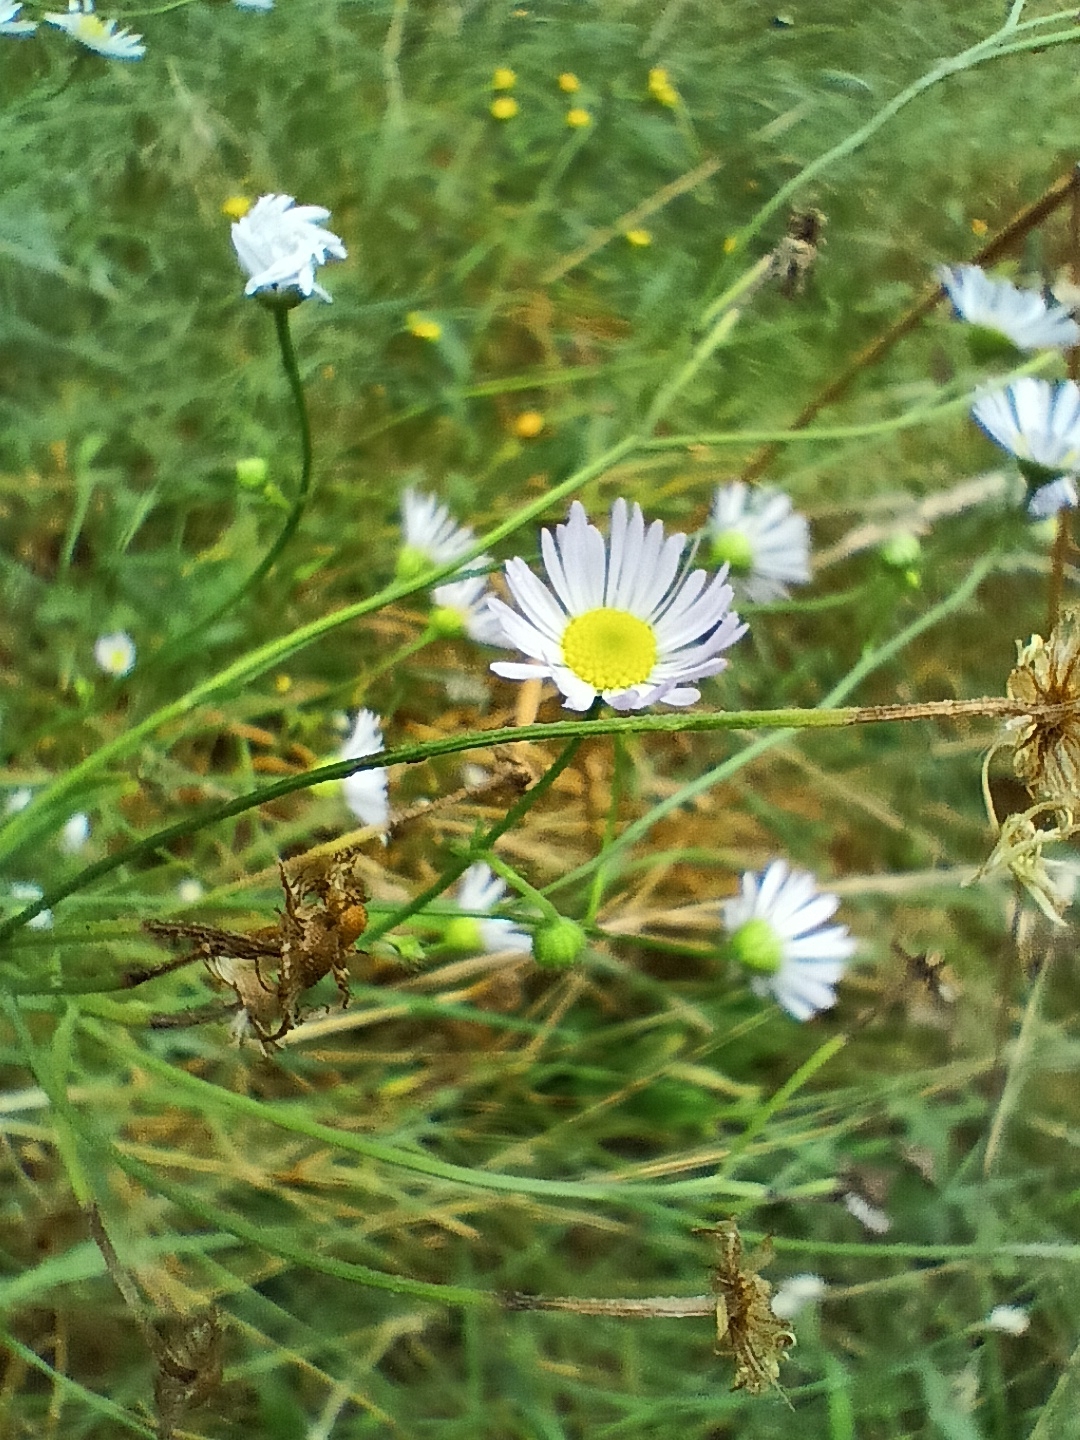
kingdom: Plantae
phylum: Tracheophyta
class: Magnoliopsida
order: Asterales
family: Asteraceae
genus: Erigeron
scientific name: Erigeron annuus
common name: Tall fleabane
